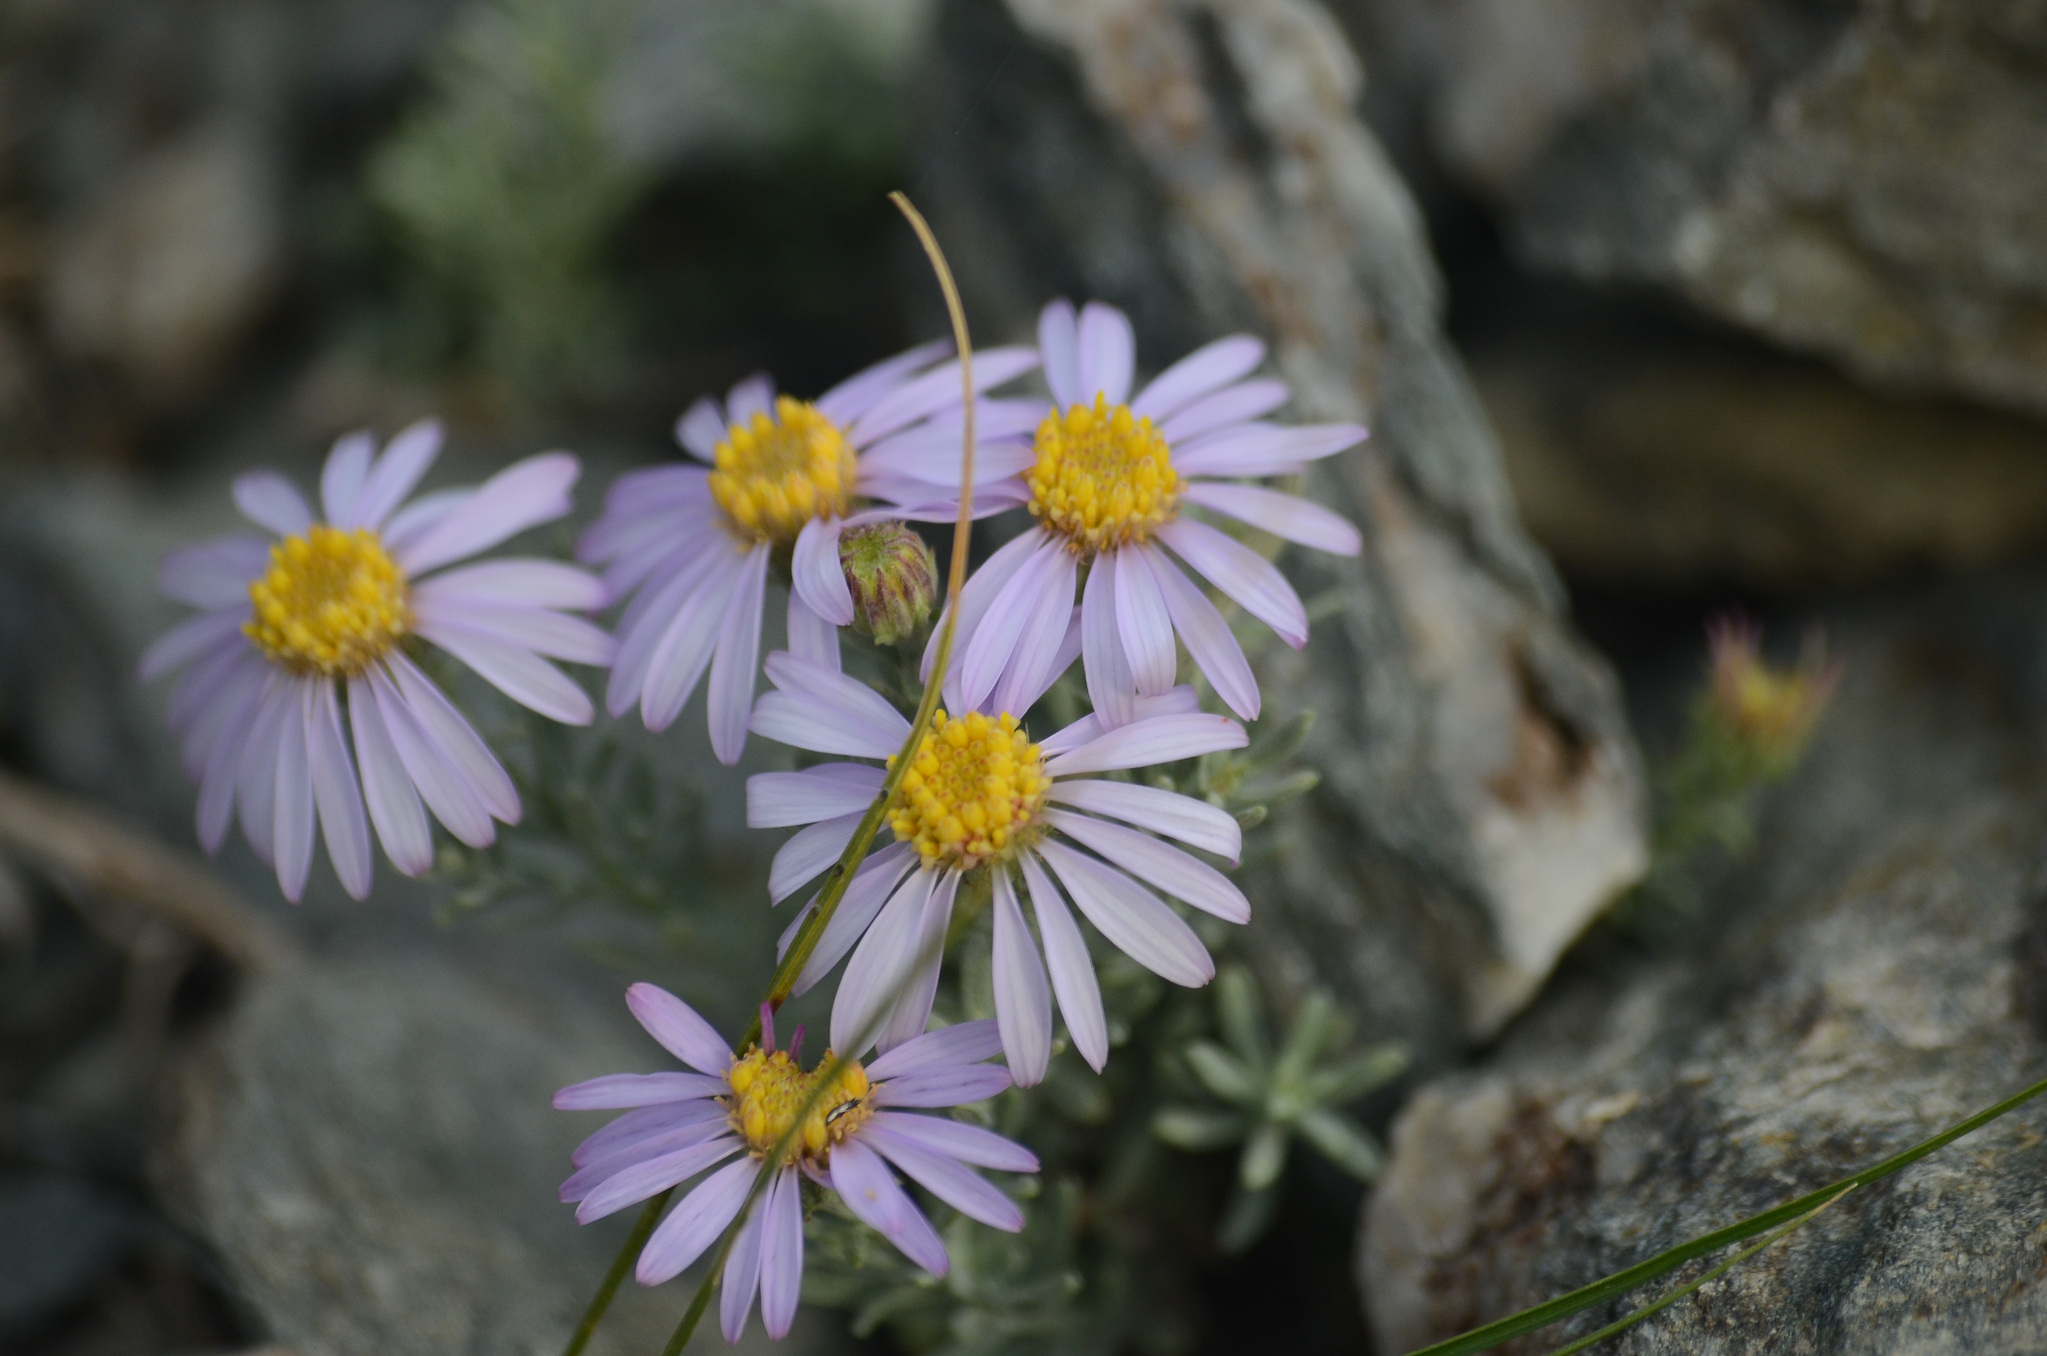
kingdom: Plantae
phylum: Tracheophyta
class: Magnoliopsida
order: Asterales
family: Asteraceae
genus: Asterothamnus
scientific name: Asterothamnus heteropappoides
